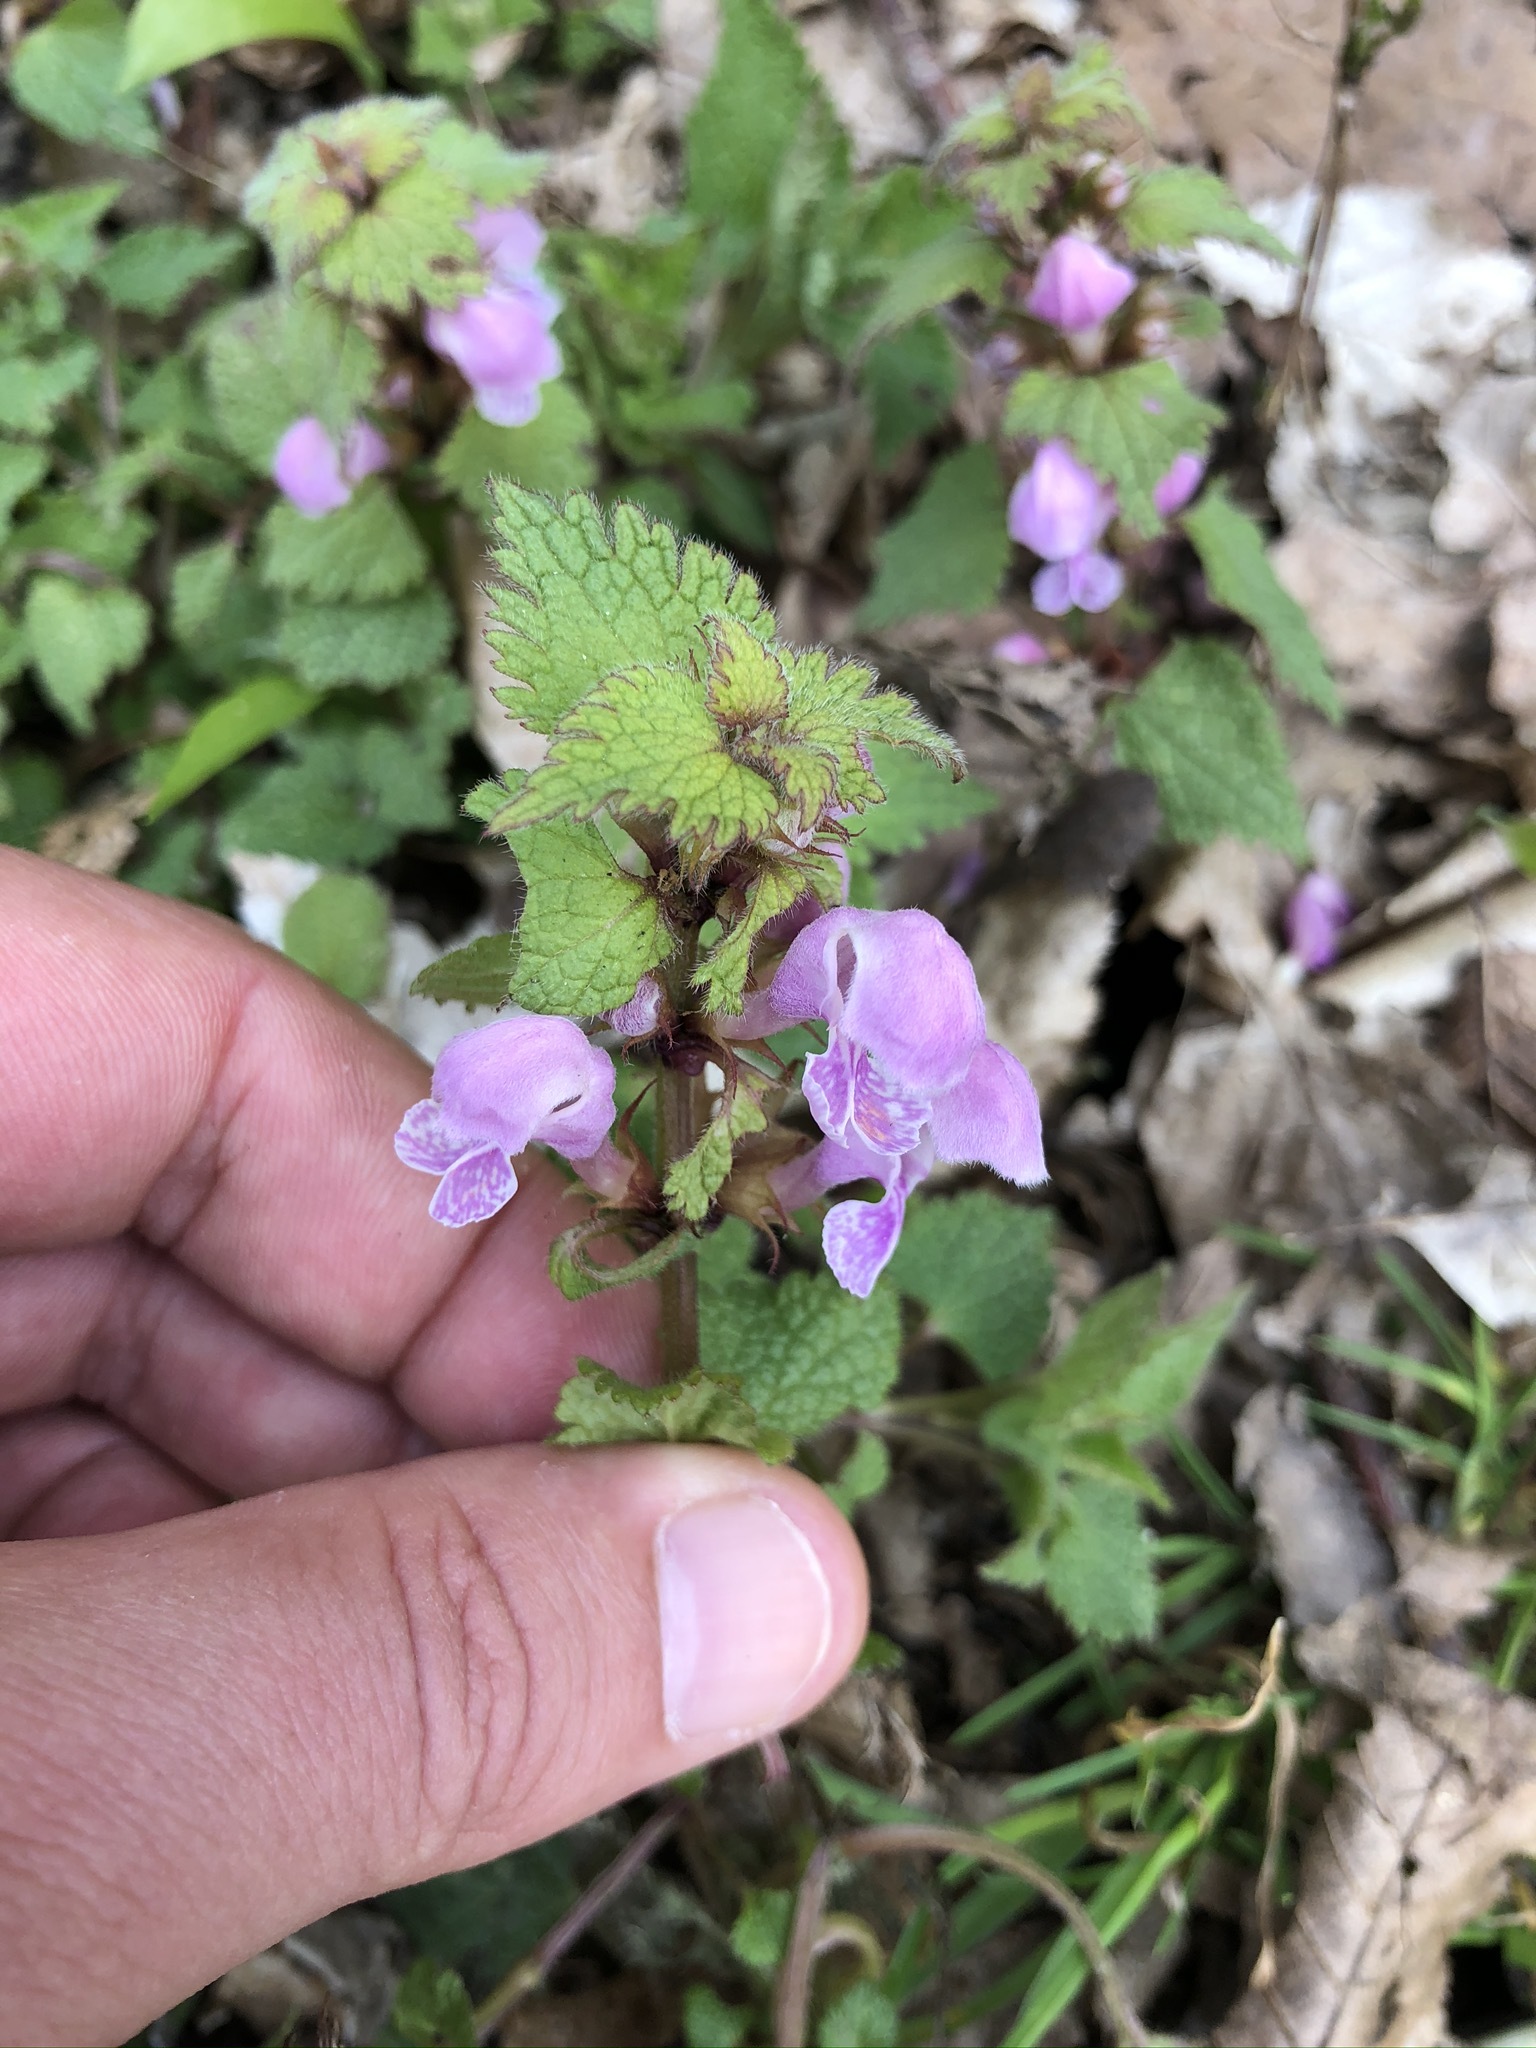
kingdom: Plantae
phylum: Tracheophyta
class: Magnoliopsida
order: Lamiales
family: Lamiaceae
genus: Lamium
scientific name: Lamium maculatum
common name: Spotted dead-nettle
